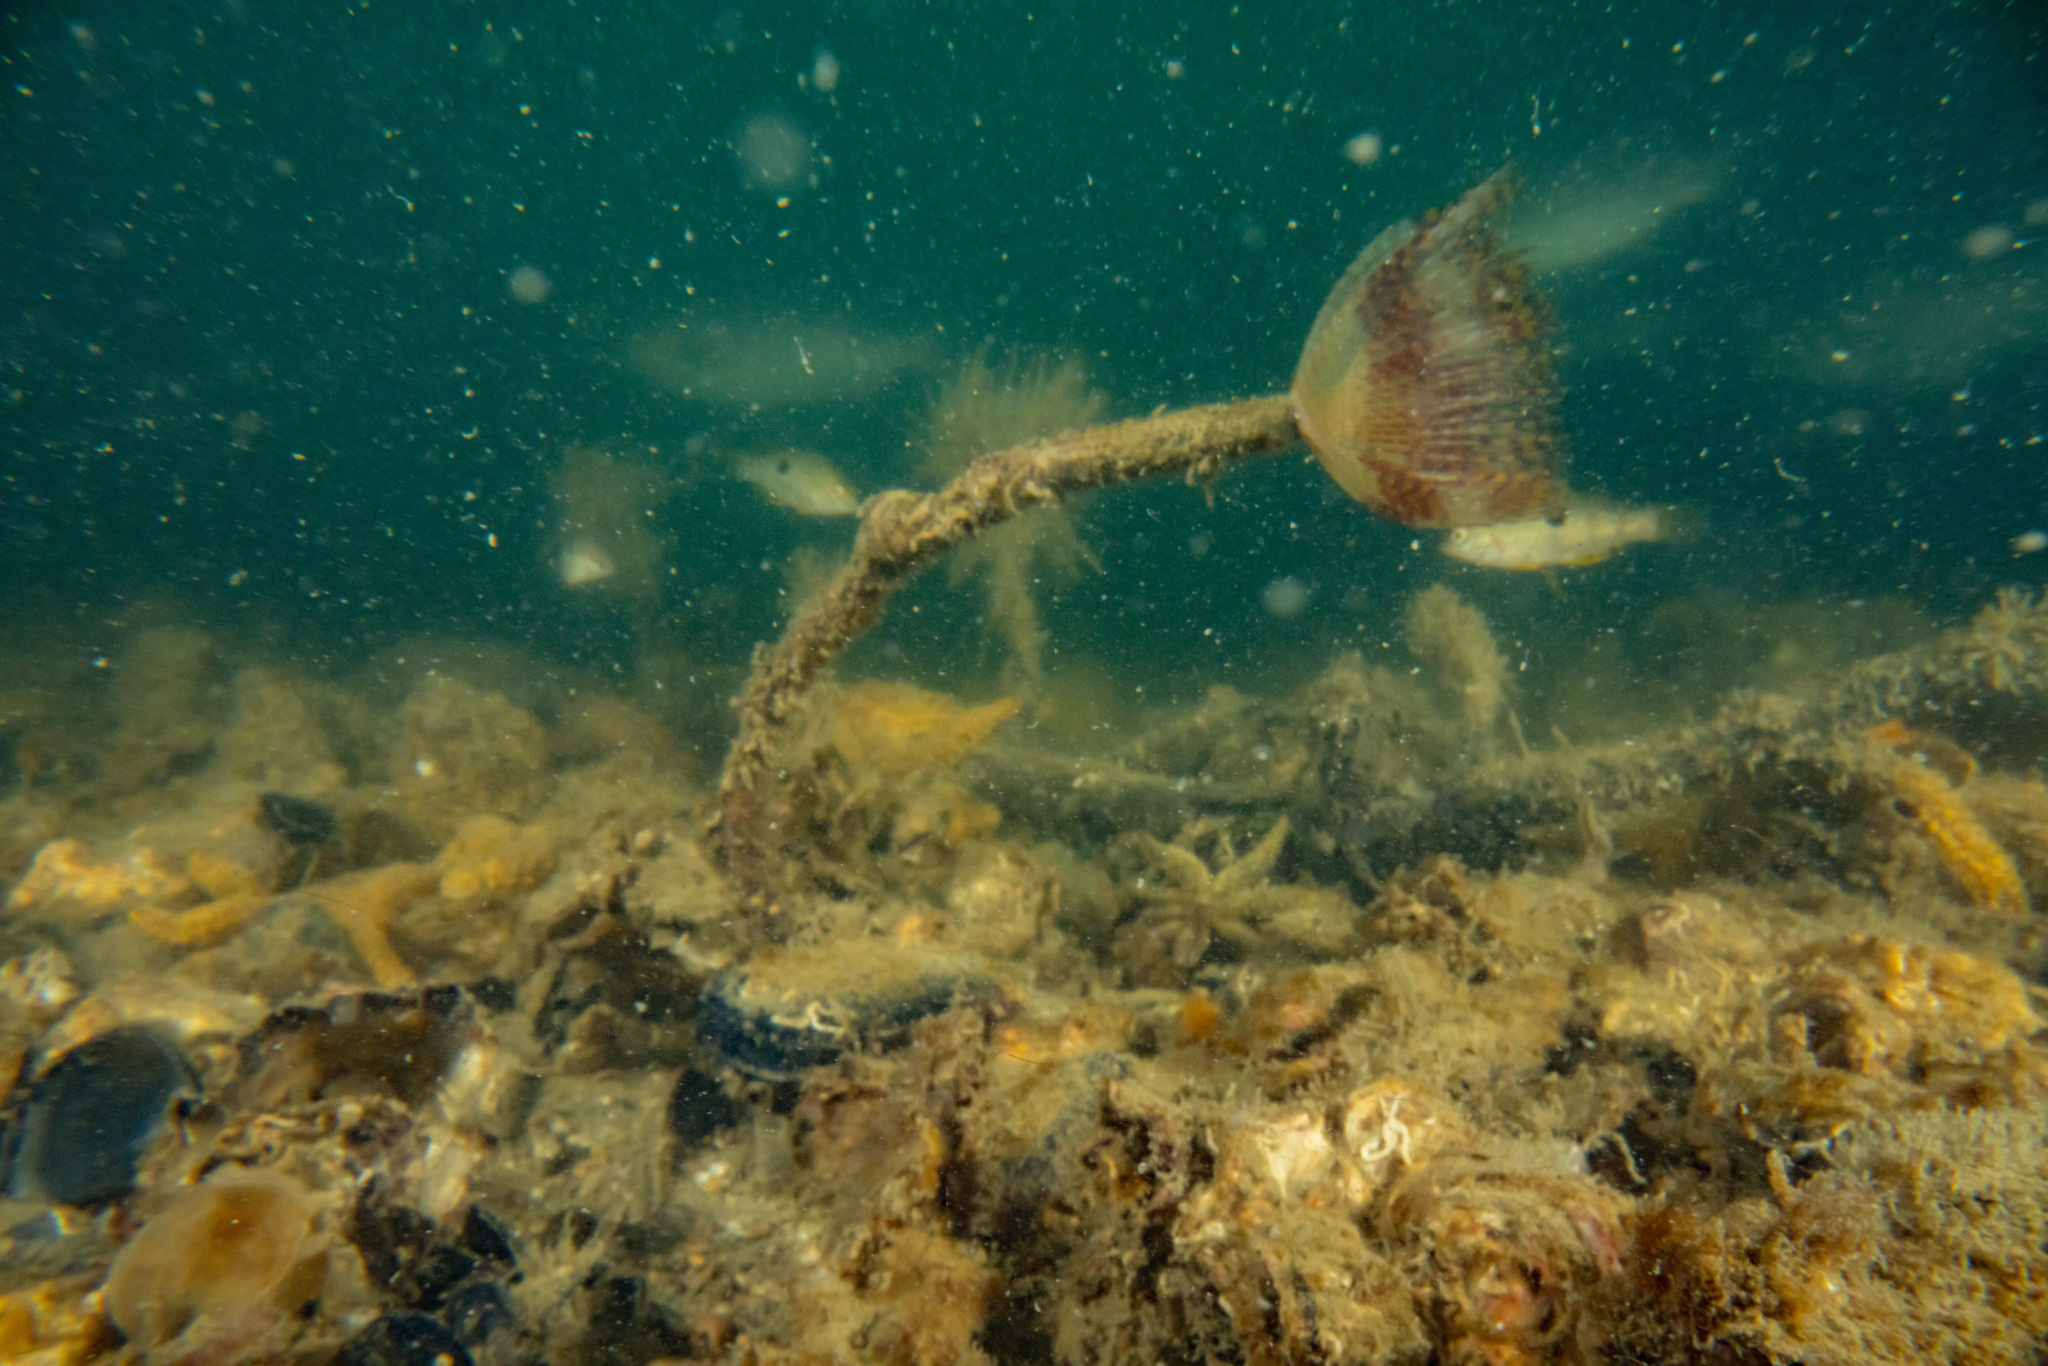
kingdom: Animalia
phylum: Annelida
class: Polychaeta
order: Sabellida
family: Sabellidae
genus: Sabella
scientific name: Sabella spallanzanii
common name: Feather duster worm
